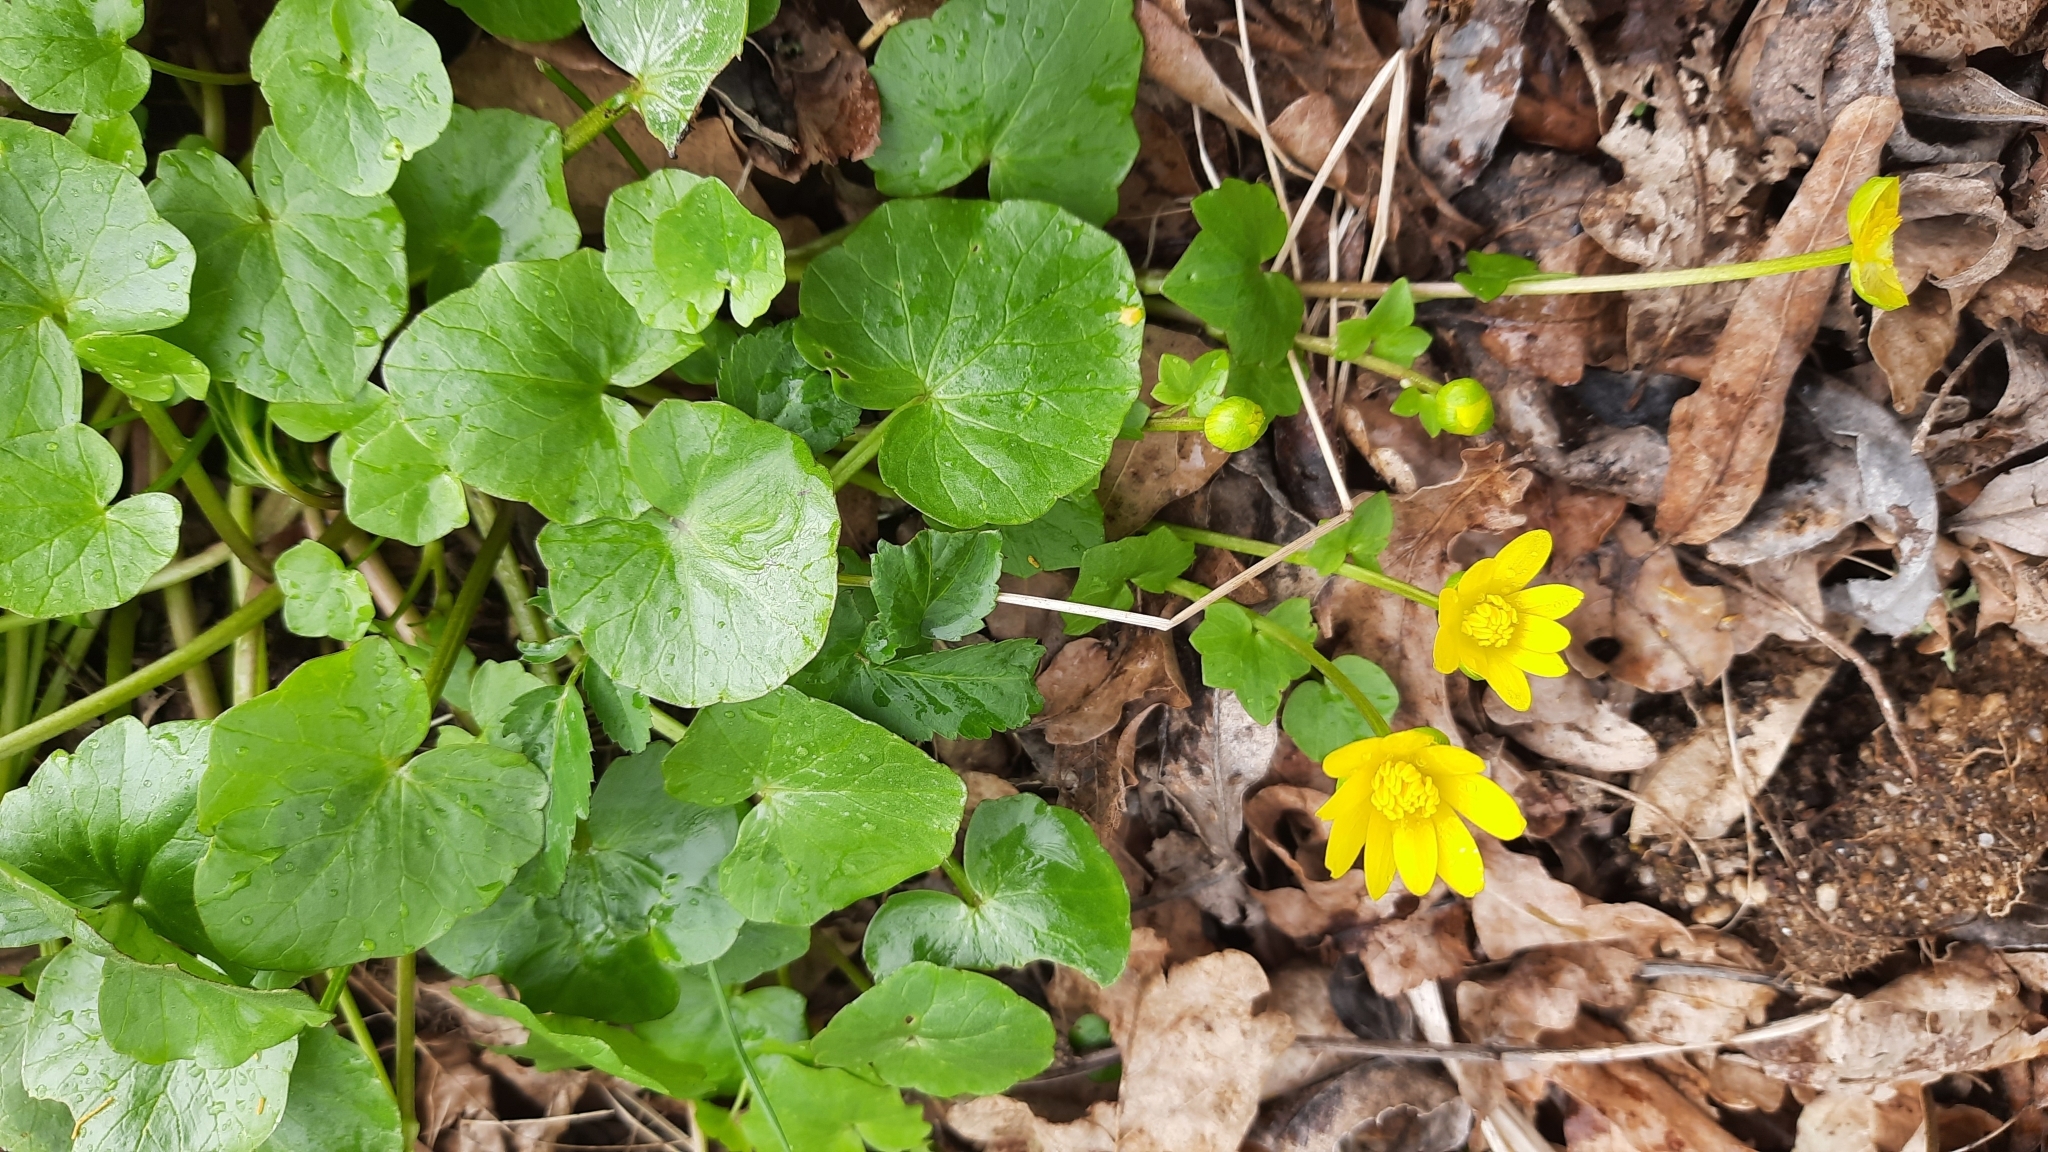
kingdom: Plantae
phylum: Tracheophyta
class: Magnoliopsida
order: Ranunculales
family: Ranunculaceae
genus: Ficaria
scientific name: Ficaria verna
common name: Lesser celandine
